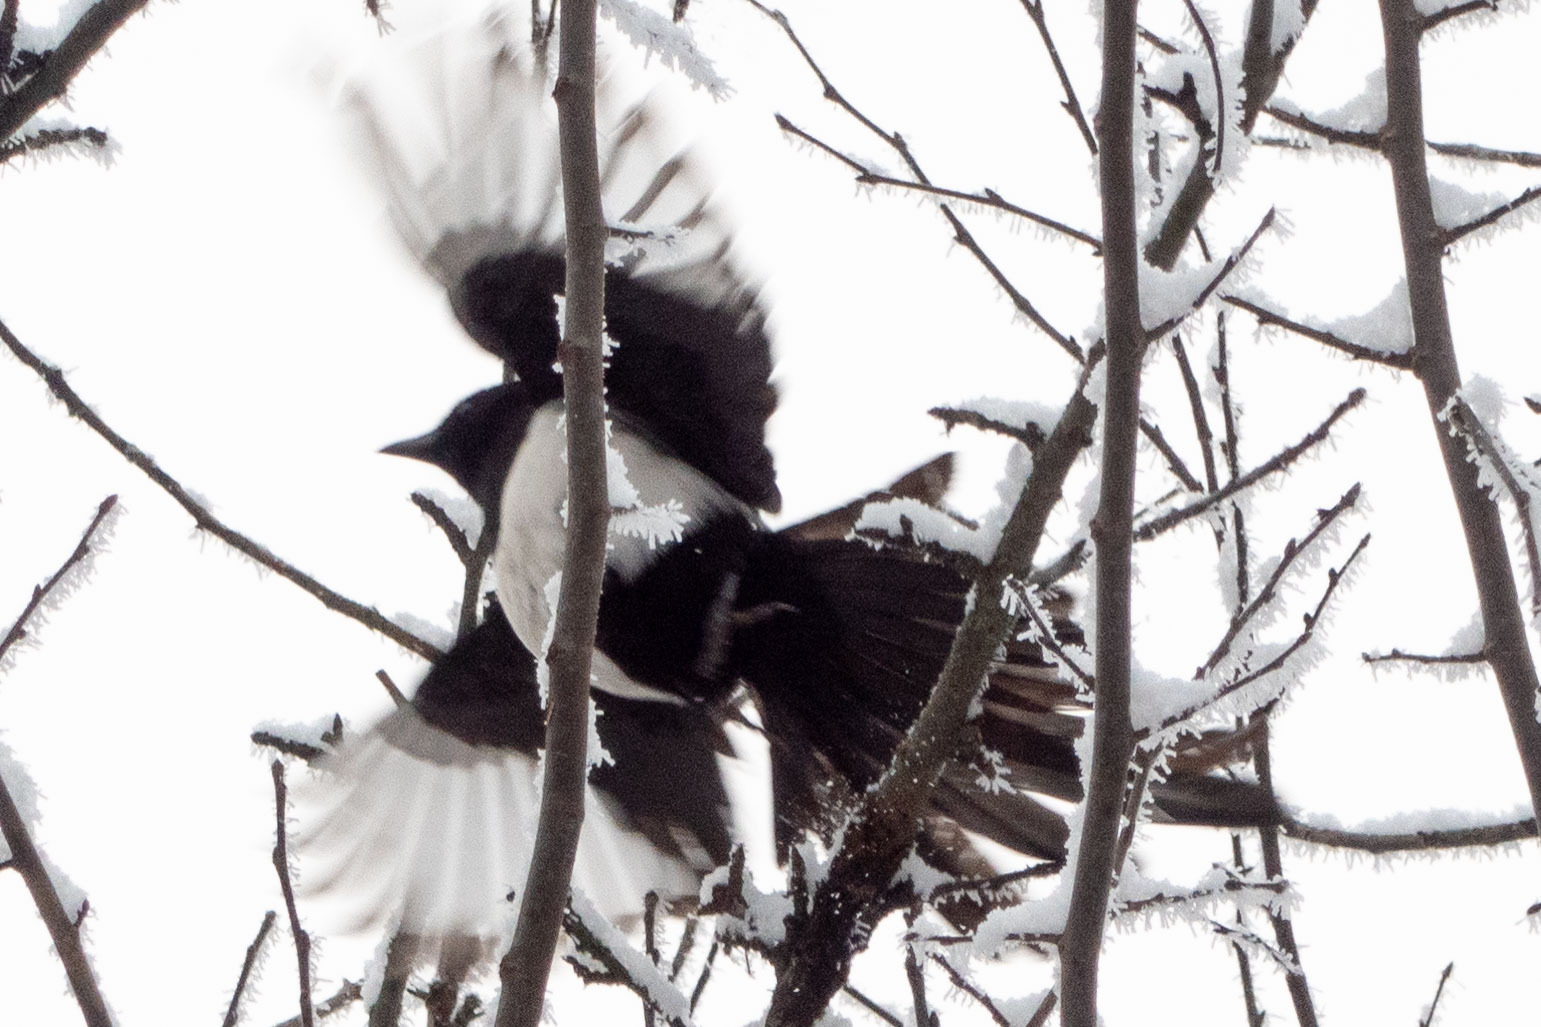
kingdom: Animalia
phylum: Chordata
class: Aves
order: Passeriformes
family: Corvidae
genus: Pica
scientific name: Pica pica
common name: Eurasian magpie
